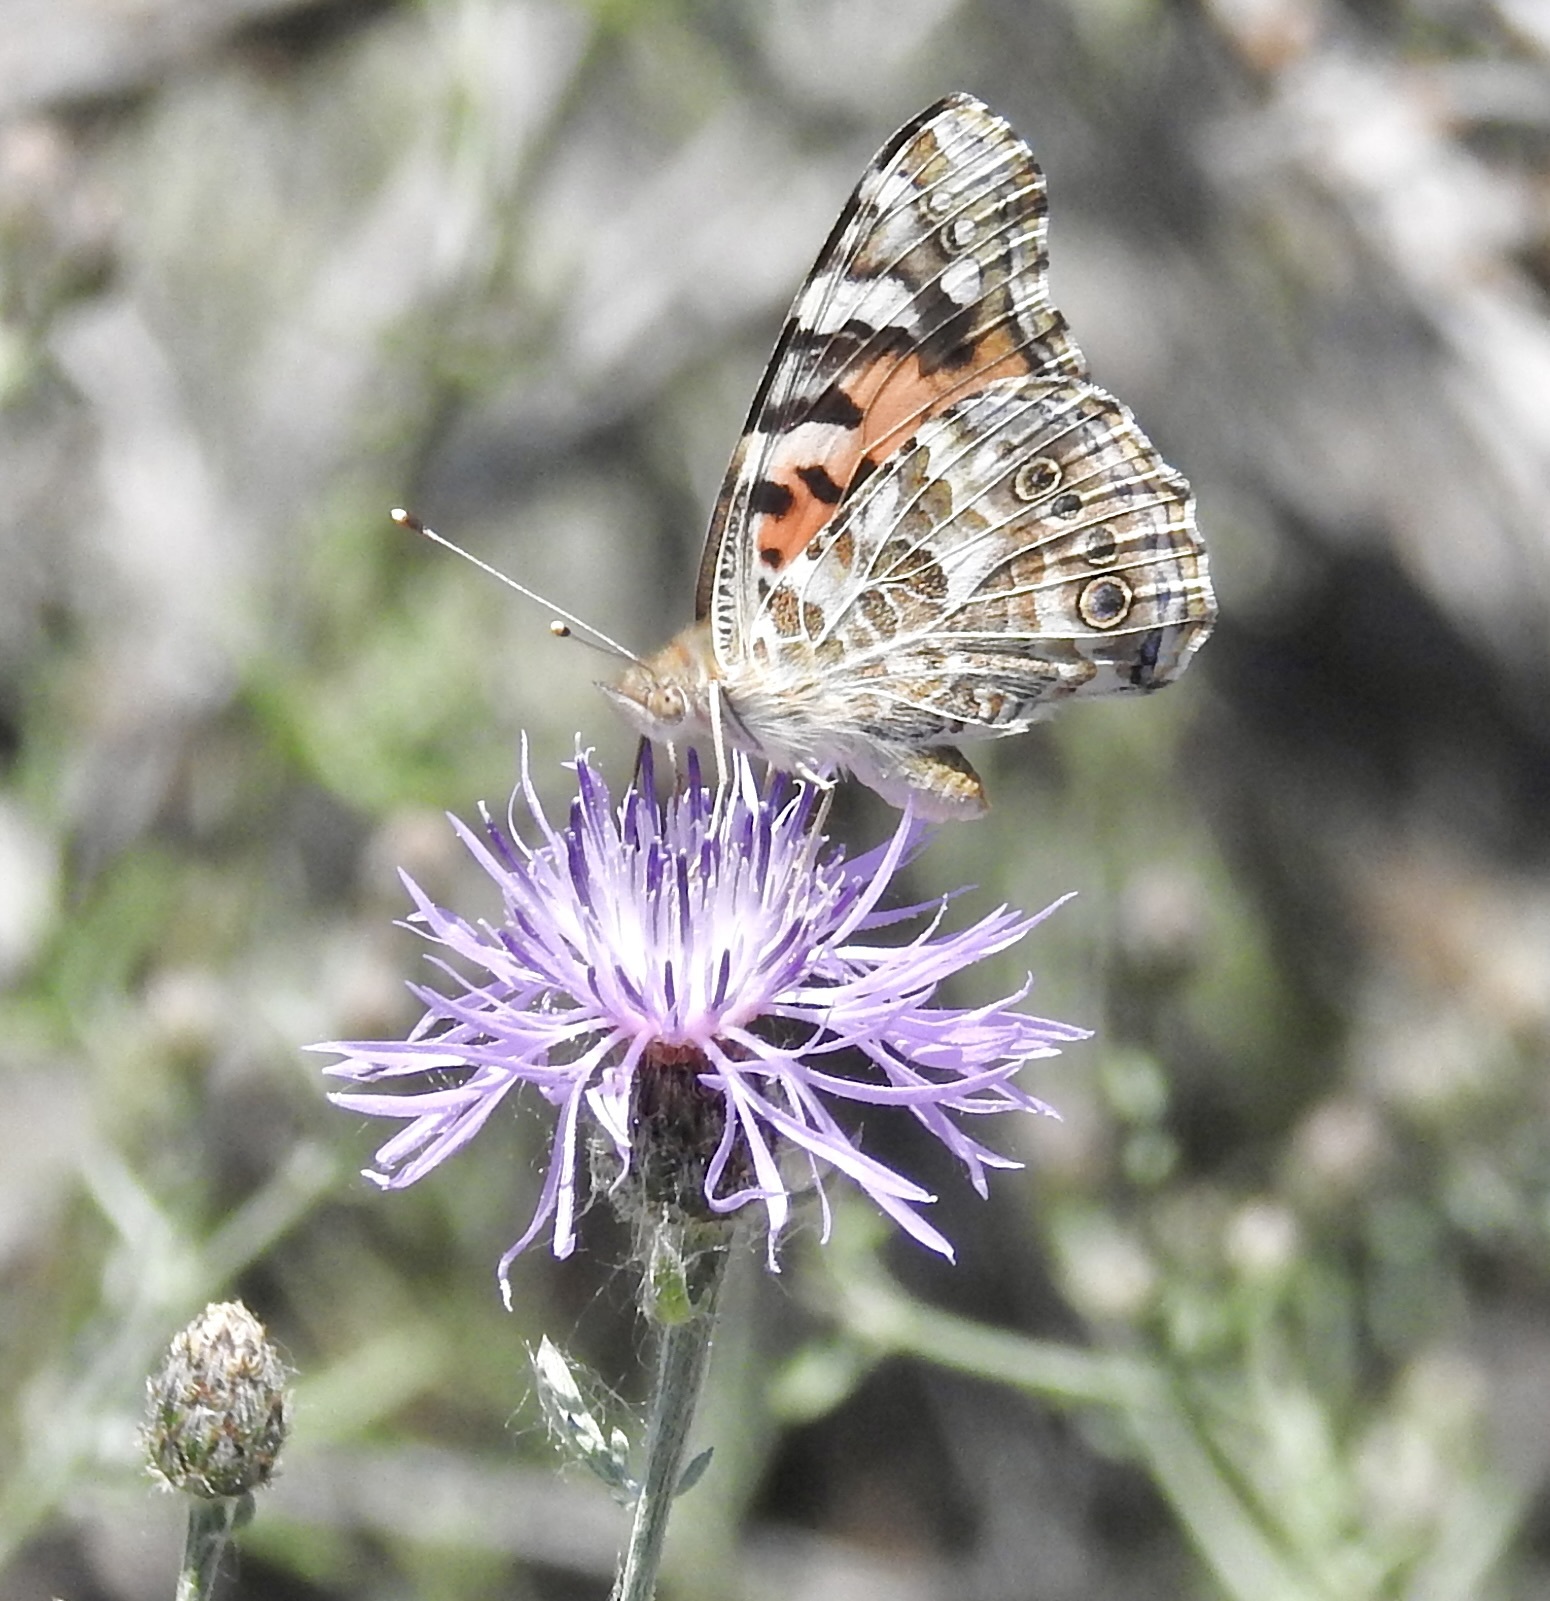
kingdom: Animalia
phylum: Arthropoda
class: Insecta
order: Lepidoptera
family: Nymphalidae
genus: Vanessa
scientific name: Vanessa cardui
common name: Painted lady
